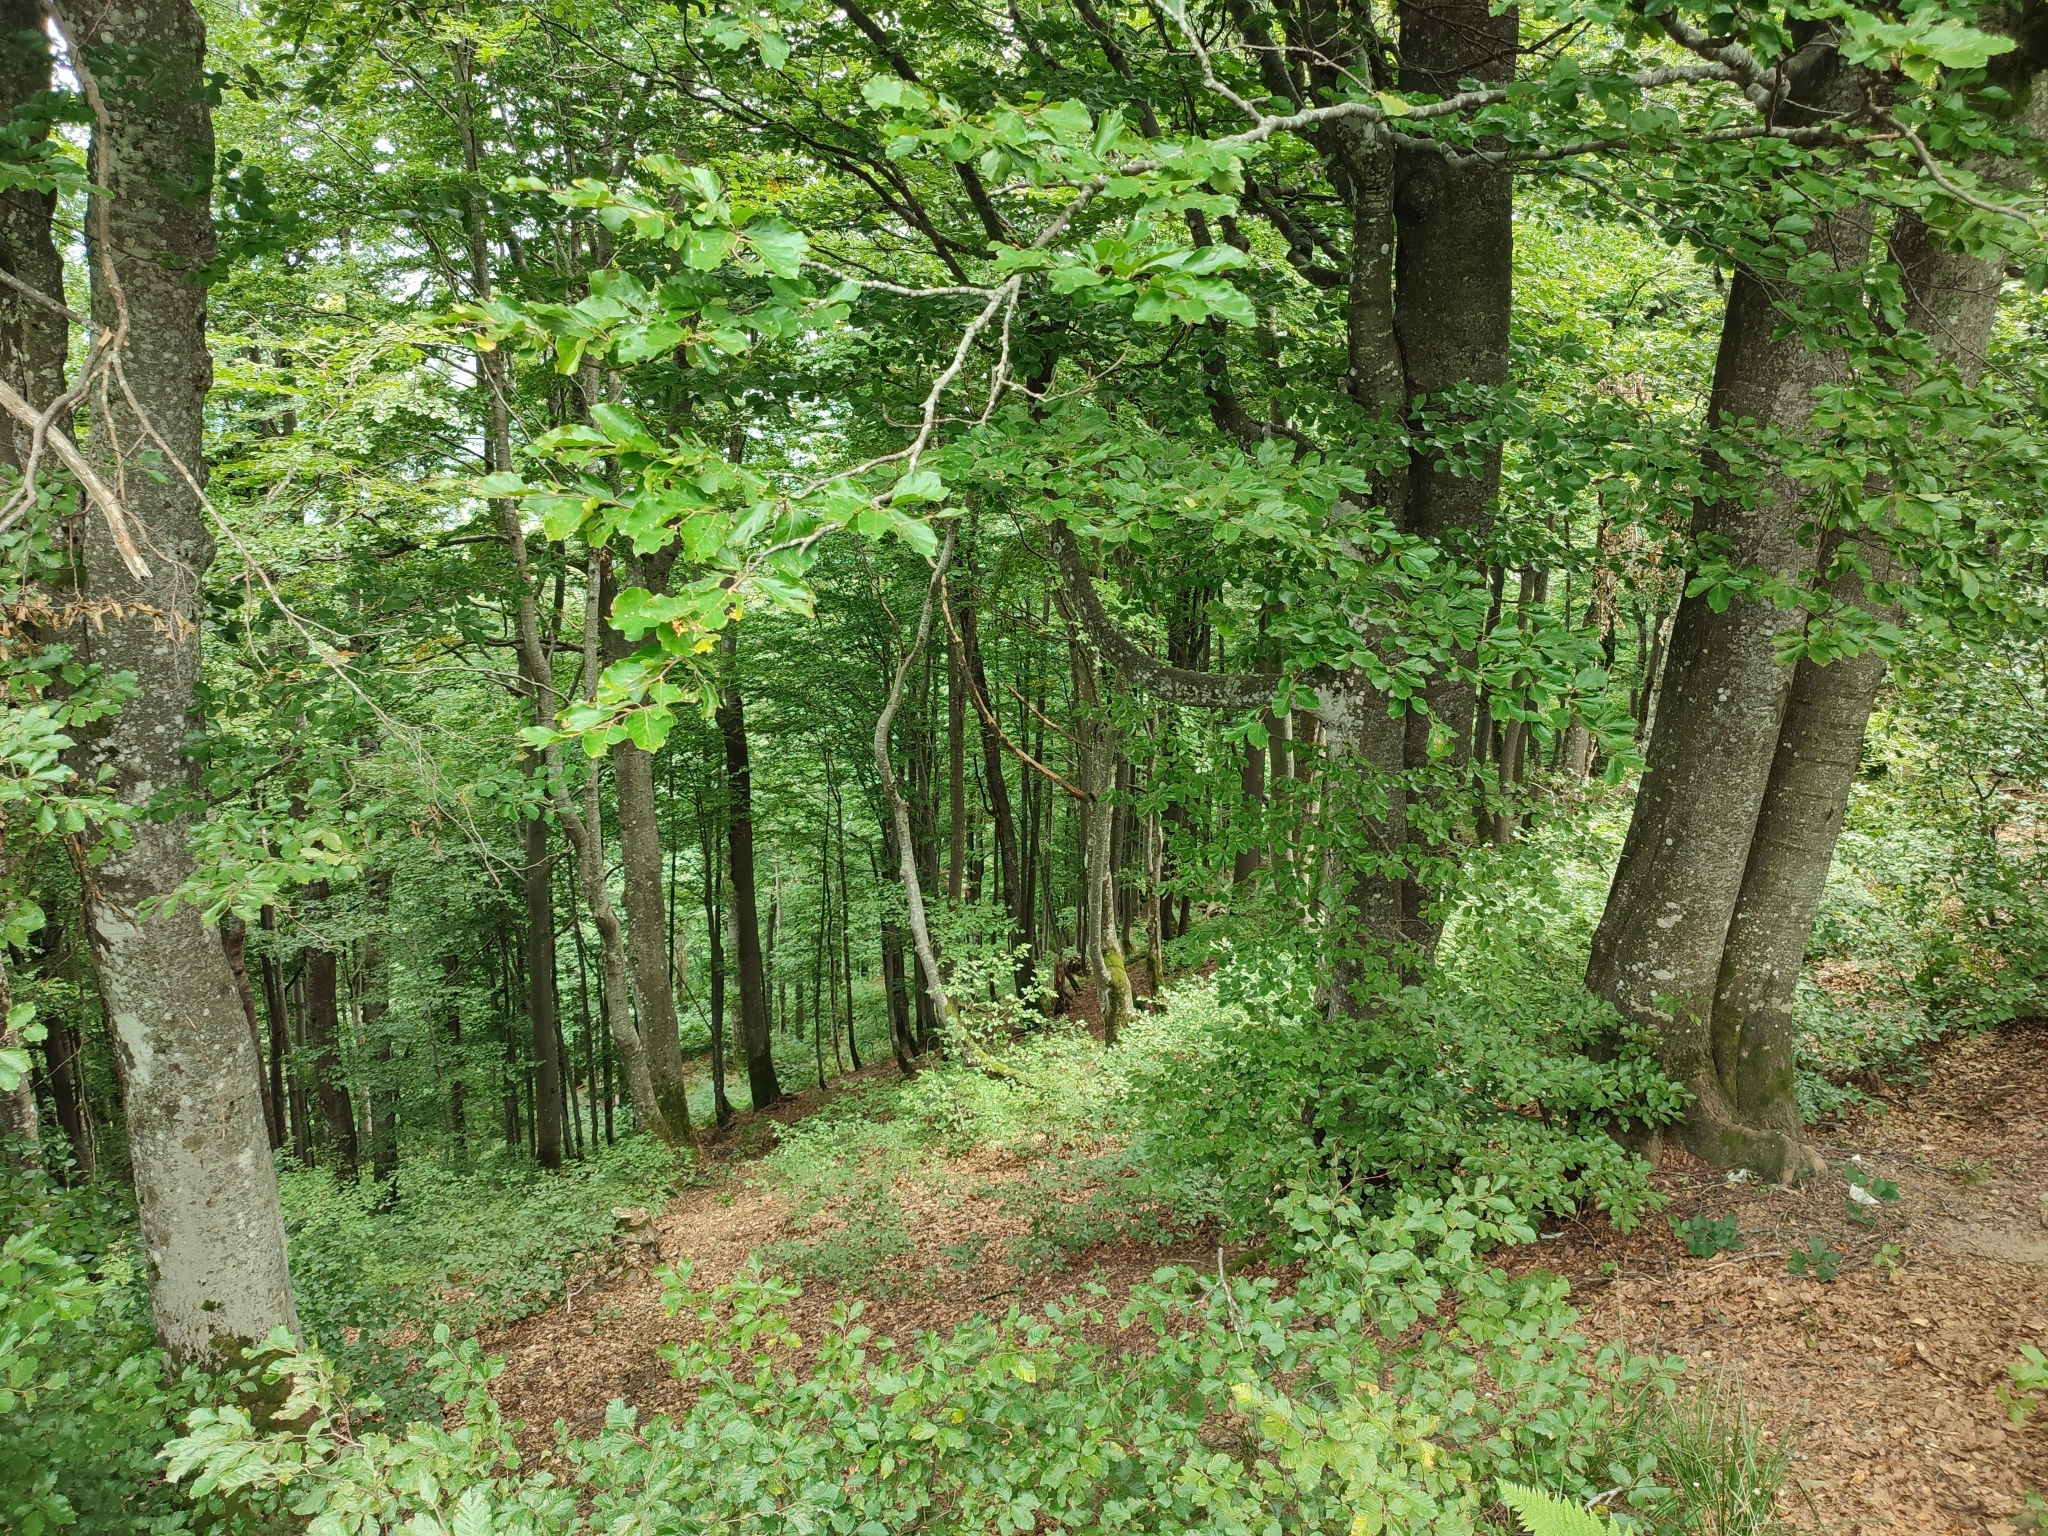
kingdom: Plantae
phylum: Tracheophyta
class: Magnoliopsida
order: Fagales
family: Fagaceae
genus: Fagus
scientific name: Fagus sylvatica
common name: Beech
